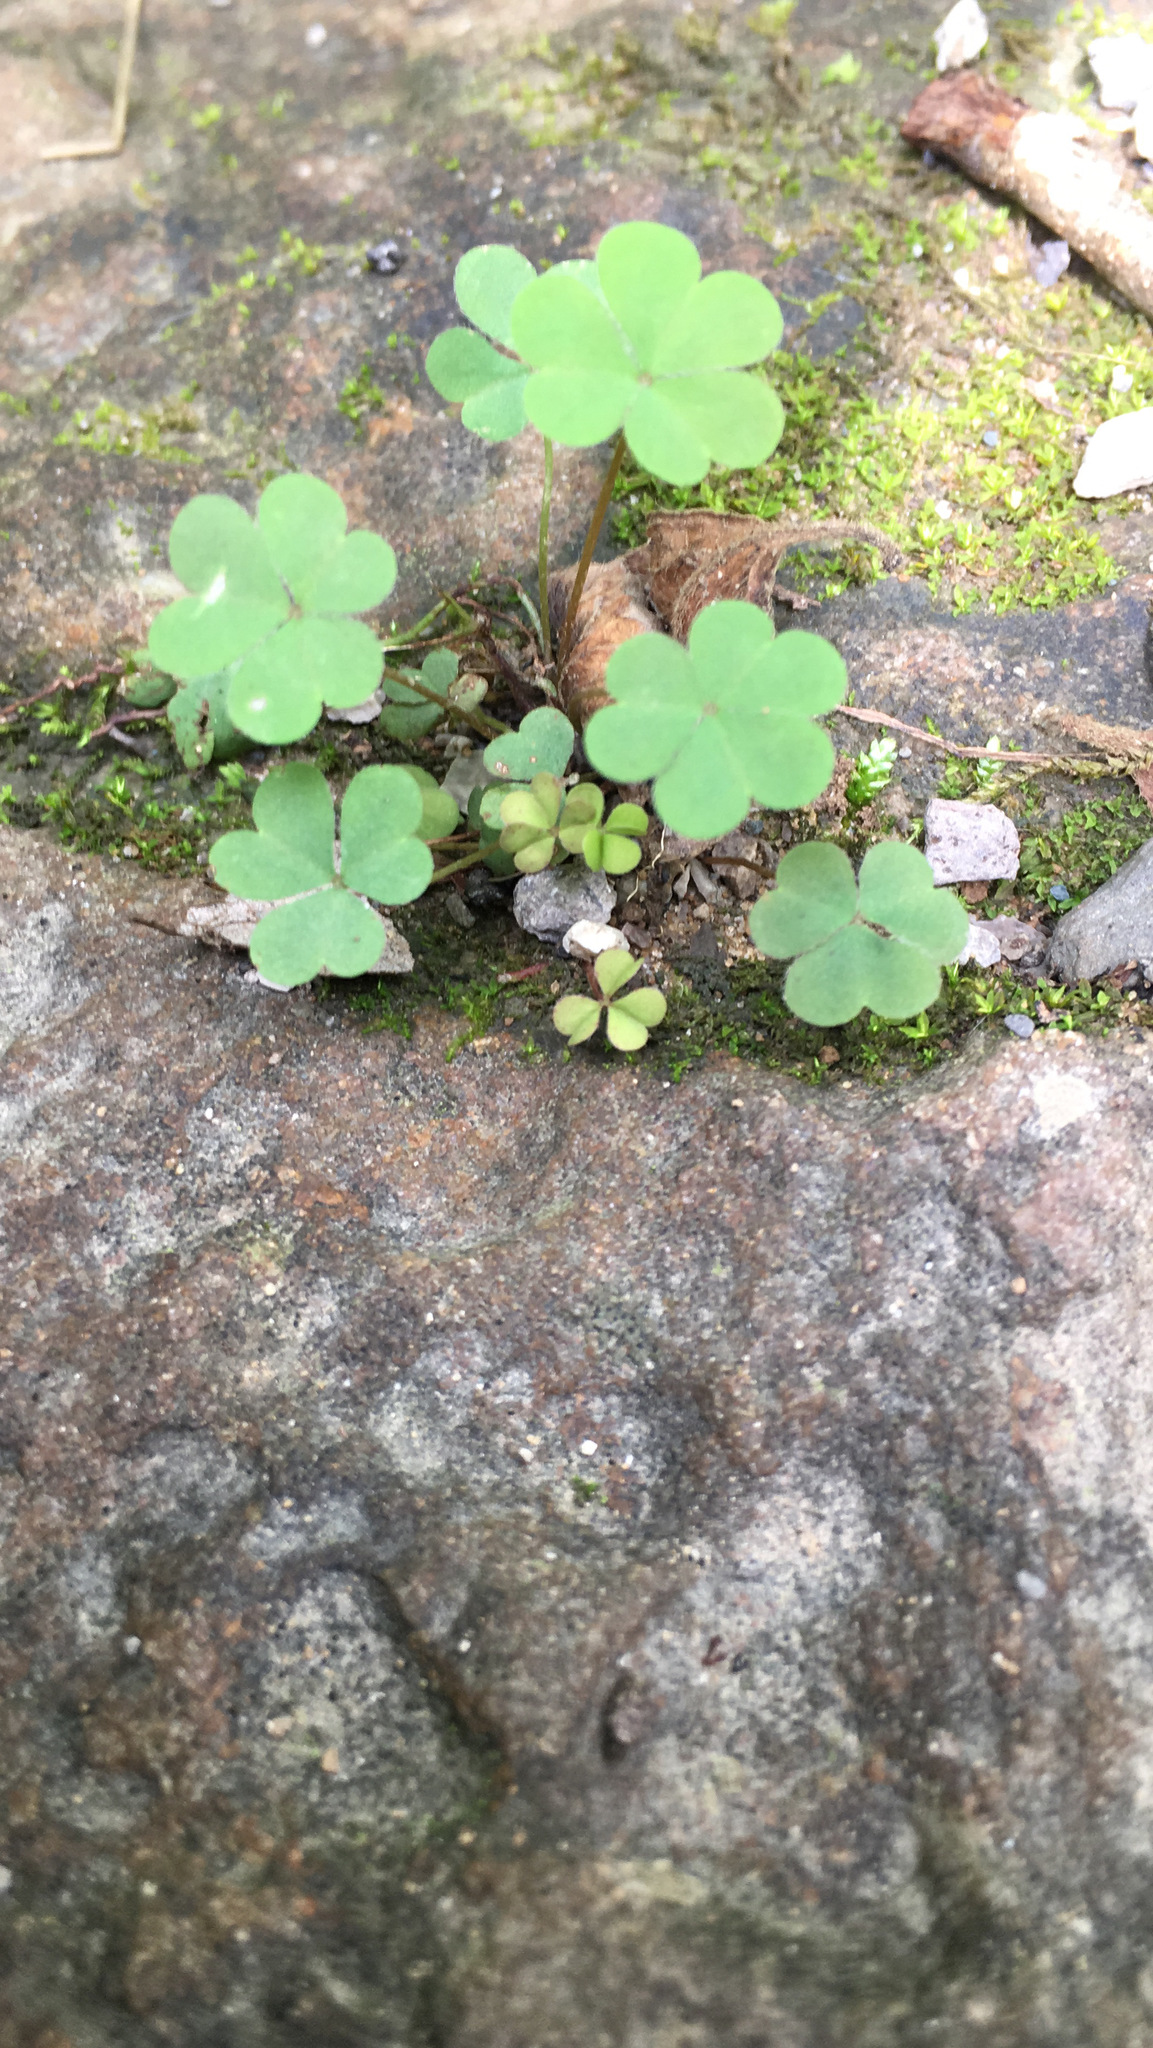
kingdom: Plantae
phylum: Tracheophyta
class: Magnoliopsida
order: Oxalidales
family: Oxalidaceae
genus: Oxalis
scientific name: Oxalis corniculata
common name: Procumbent yellow-sorrel
